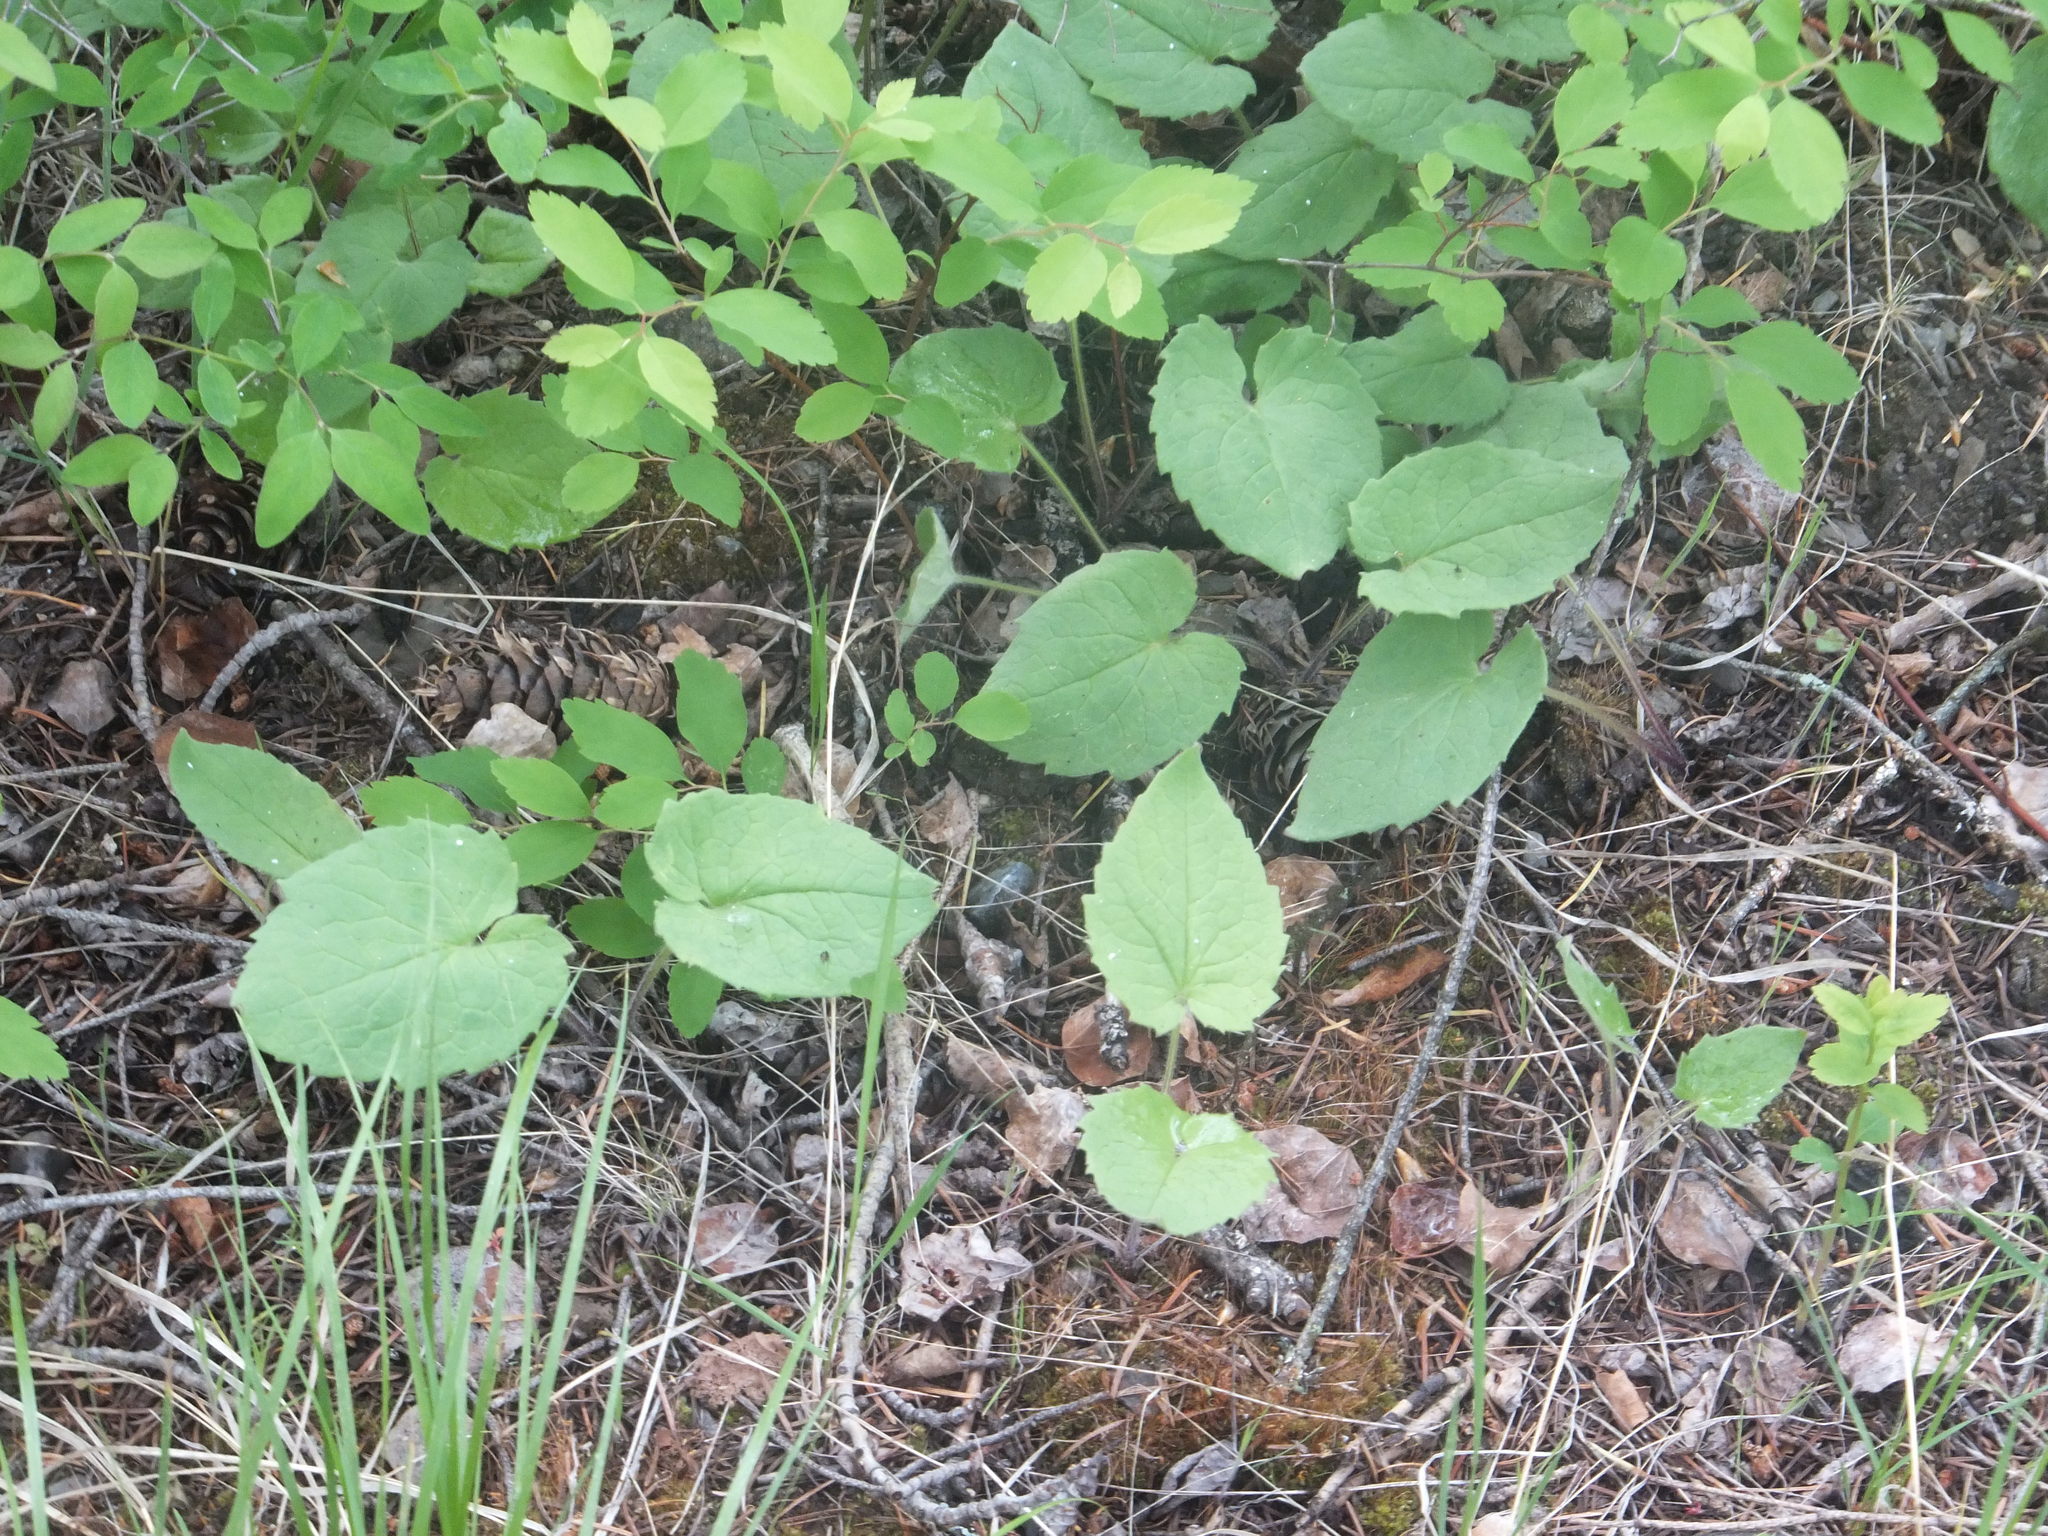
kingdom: Plantae
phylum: Tracheophyta
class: Magnoliopsida
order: Asterales
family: Asteraceae
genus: Arnica
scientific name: Arnica cordifolia
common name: Heart-leaf arnica
